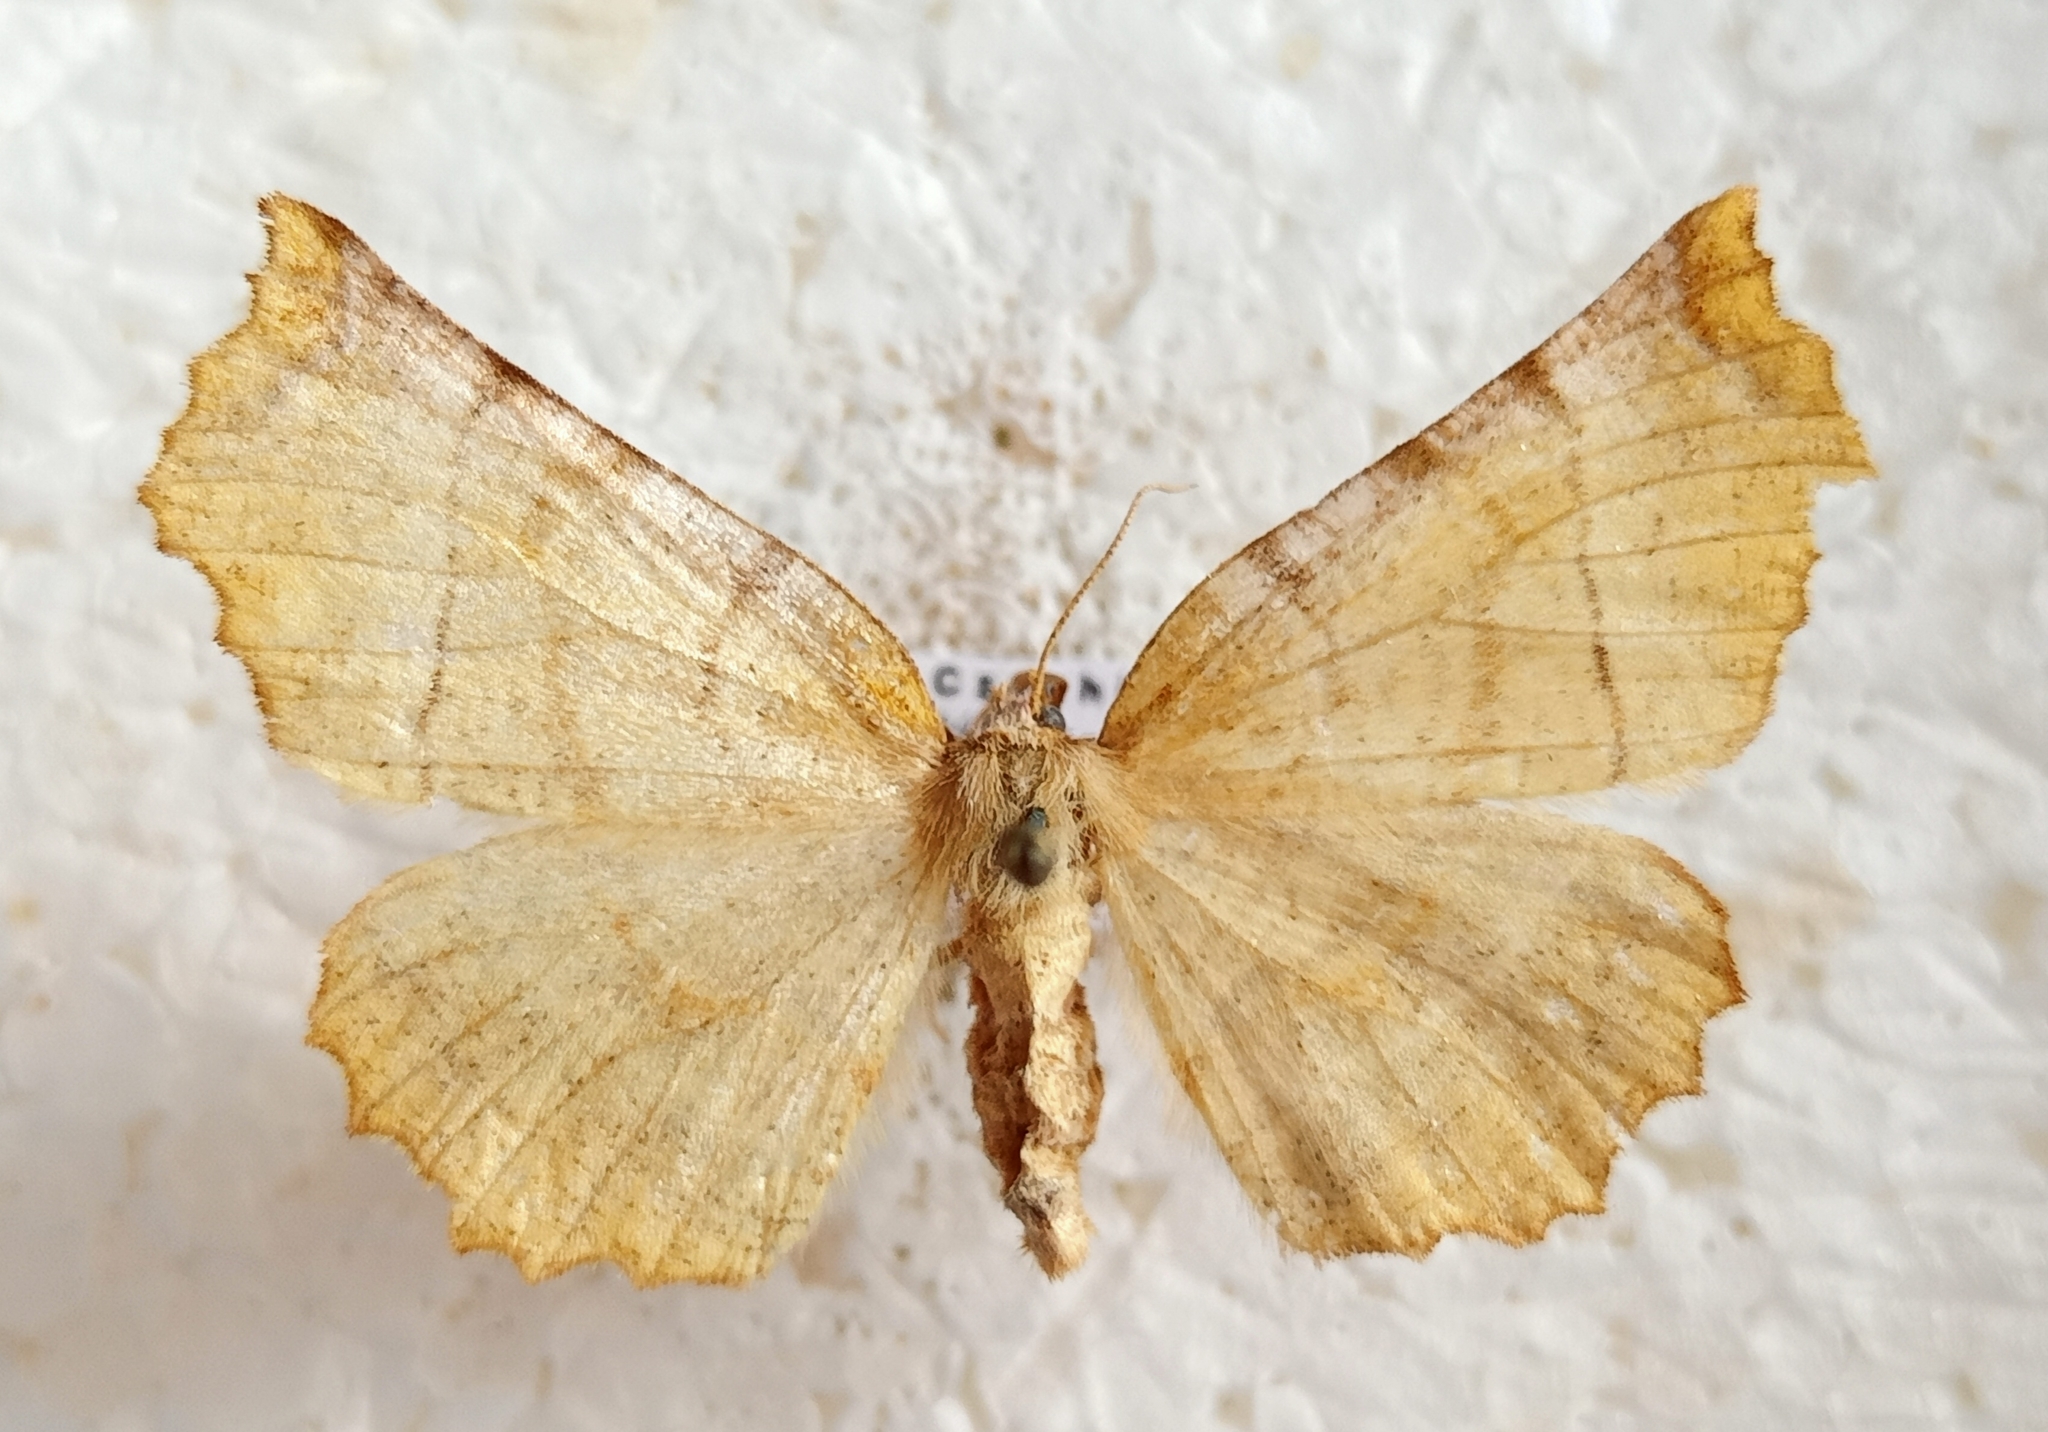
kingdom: Animalia
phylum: Arthropoda
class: Insecta
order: Lepidoptera
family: Geometridae
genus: Selenia
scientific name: Selenia dentaria
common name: Early thorn
